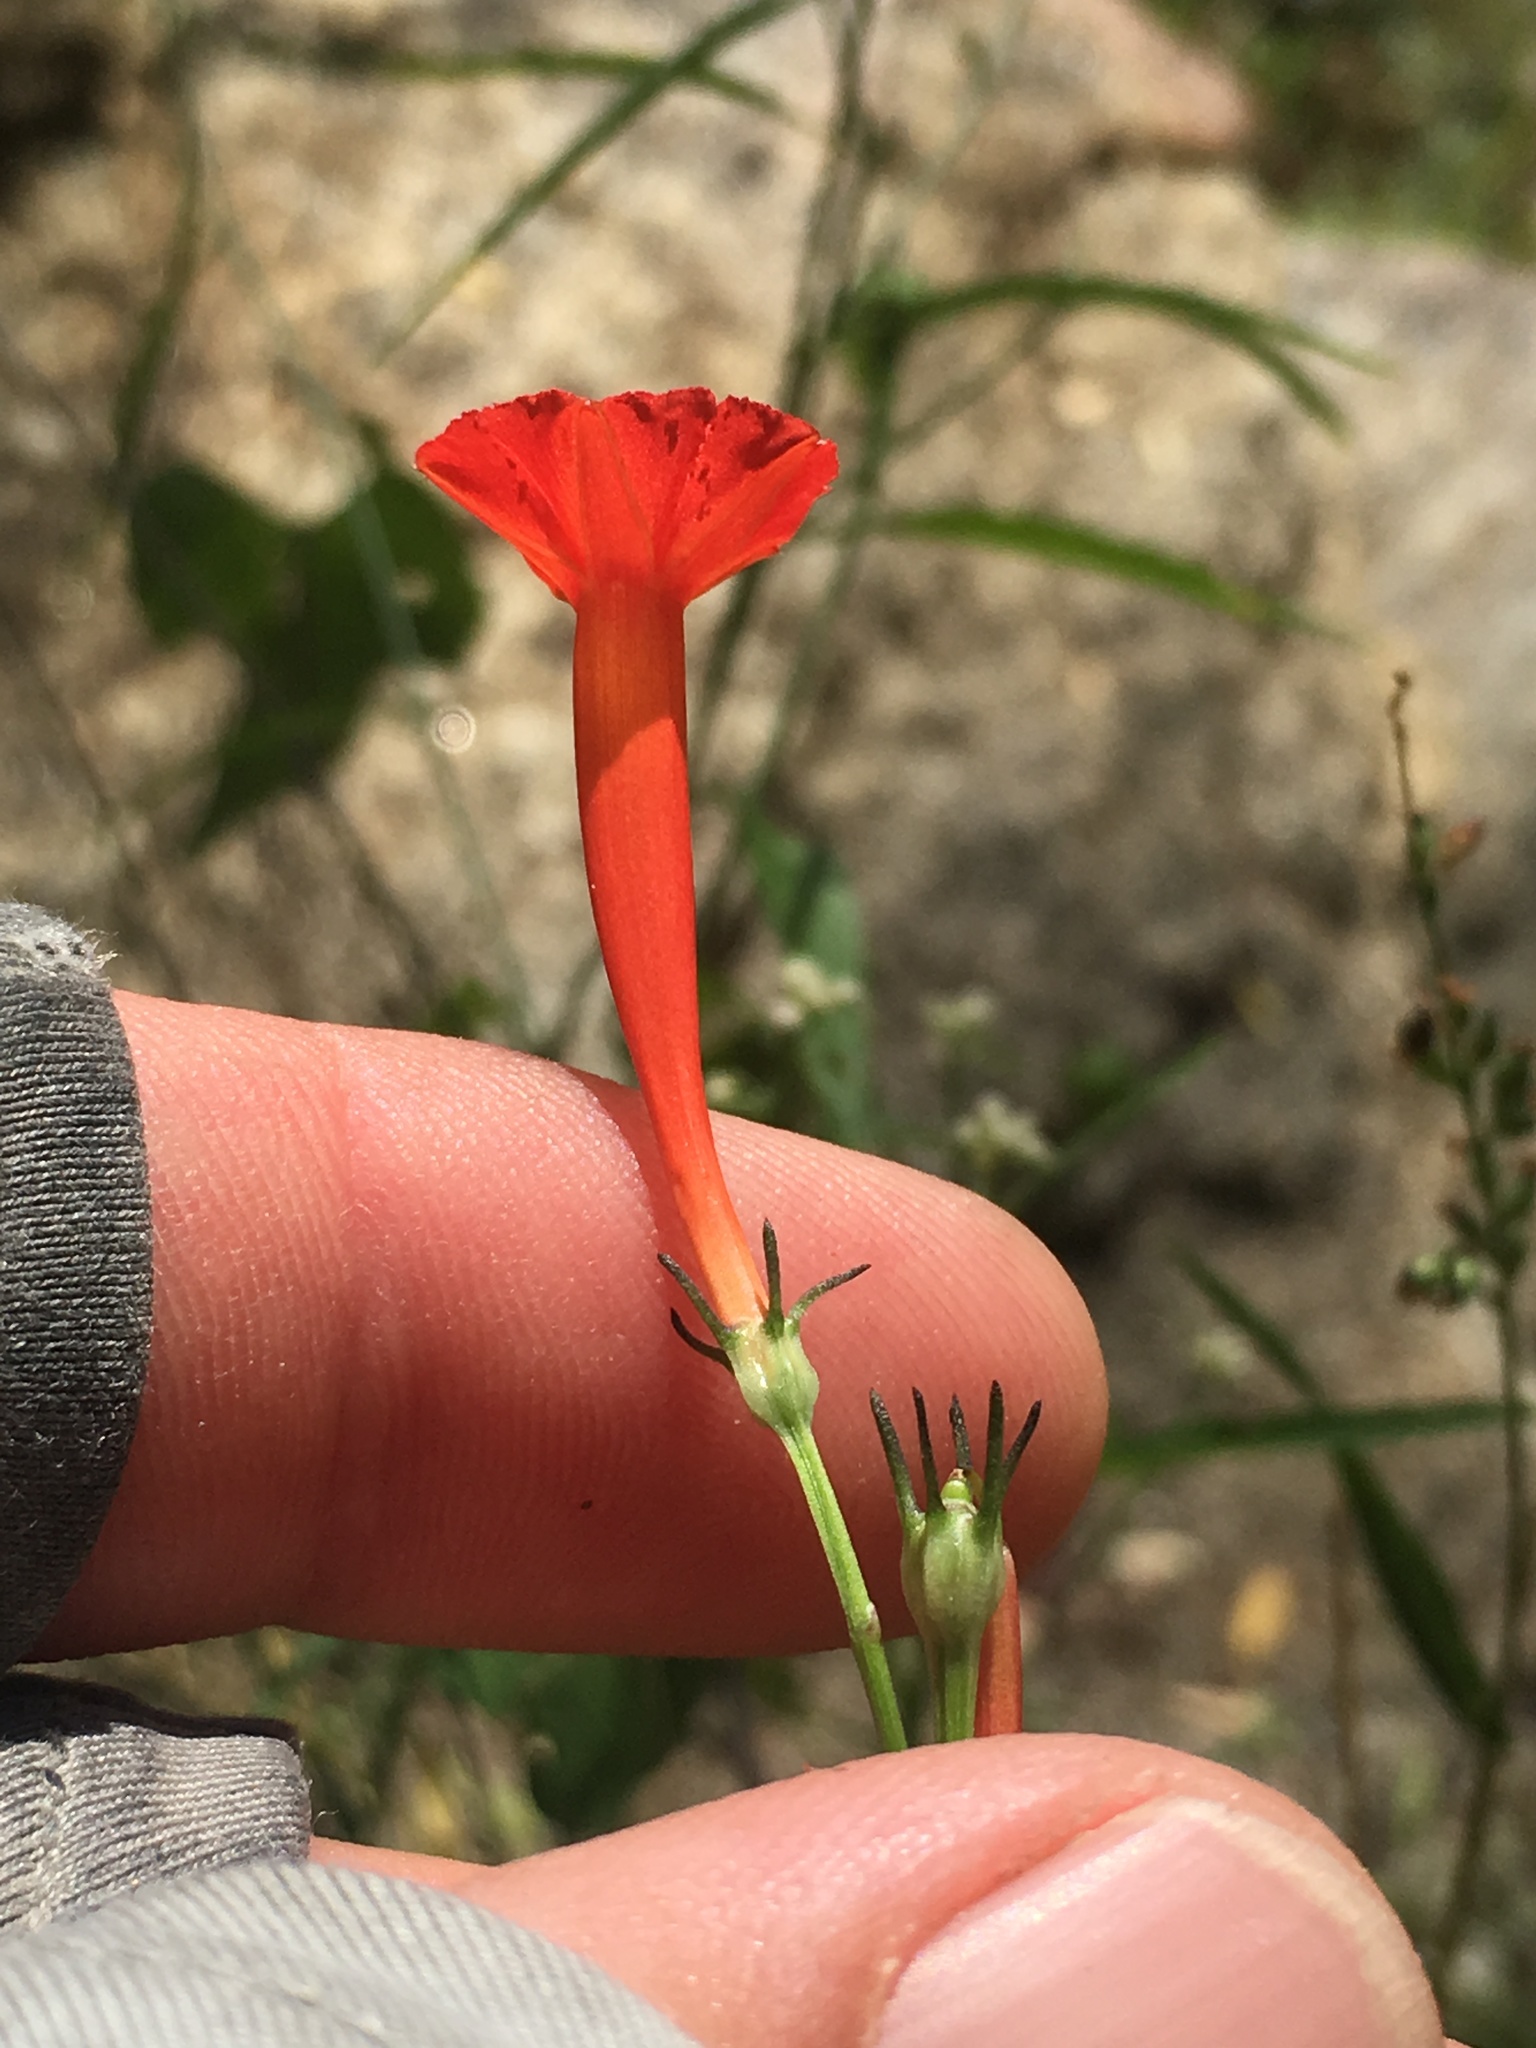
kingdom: Plantae
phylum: Tracheophyta
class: Magnoliopsida
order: Solanales
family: Convolvulaceae
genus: Ipomoea
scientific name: Ipomoea hederifolia
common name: Ivy-leaf morning-glory
